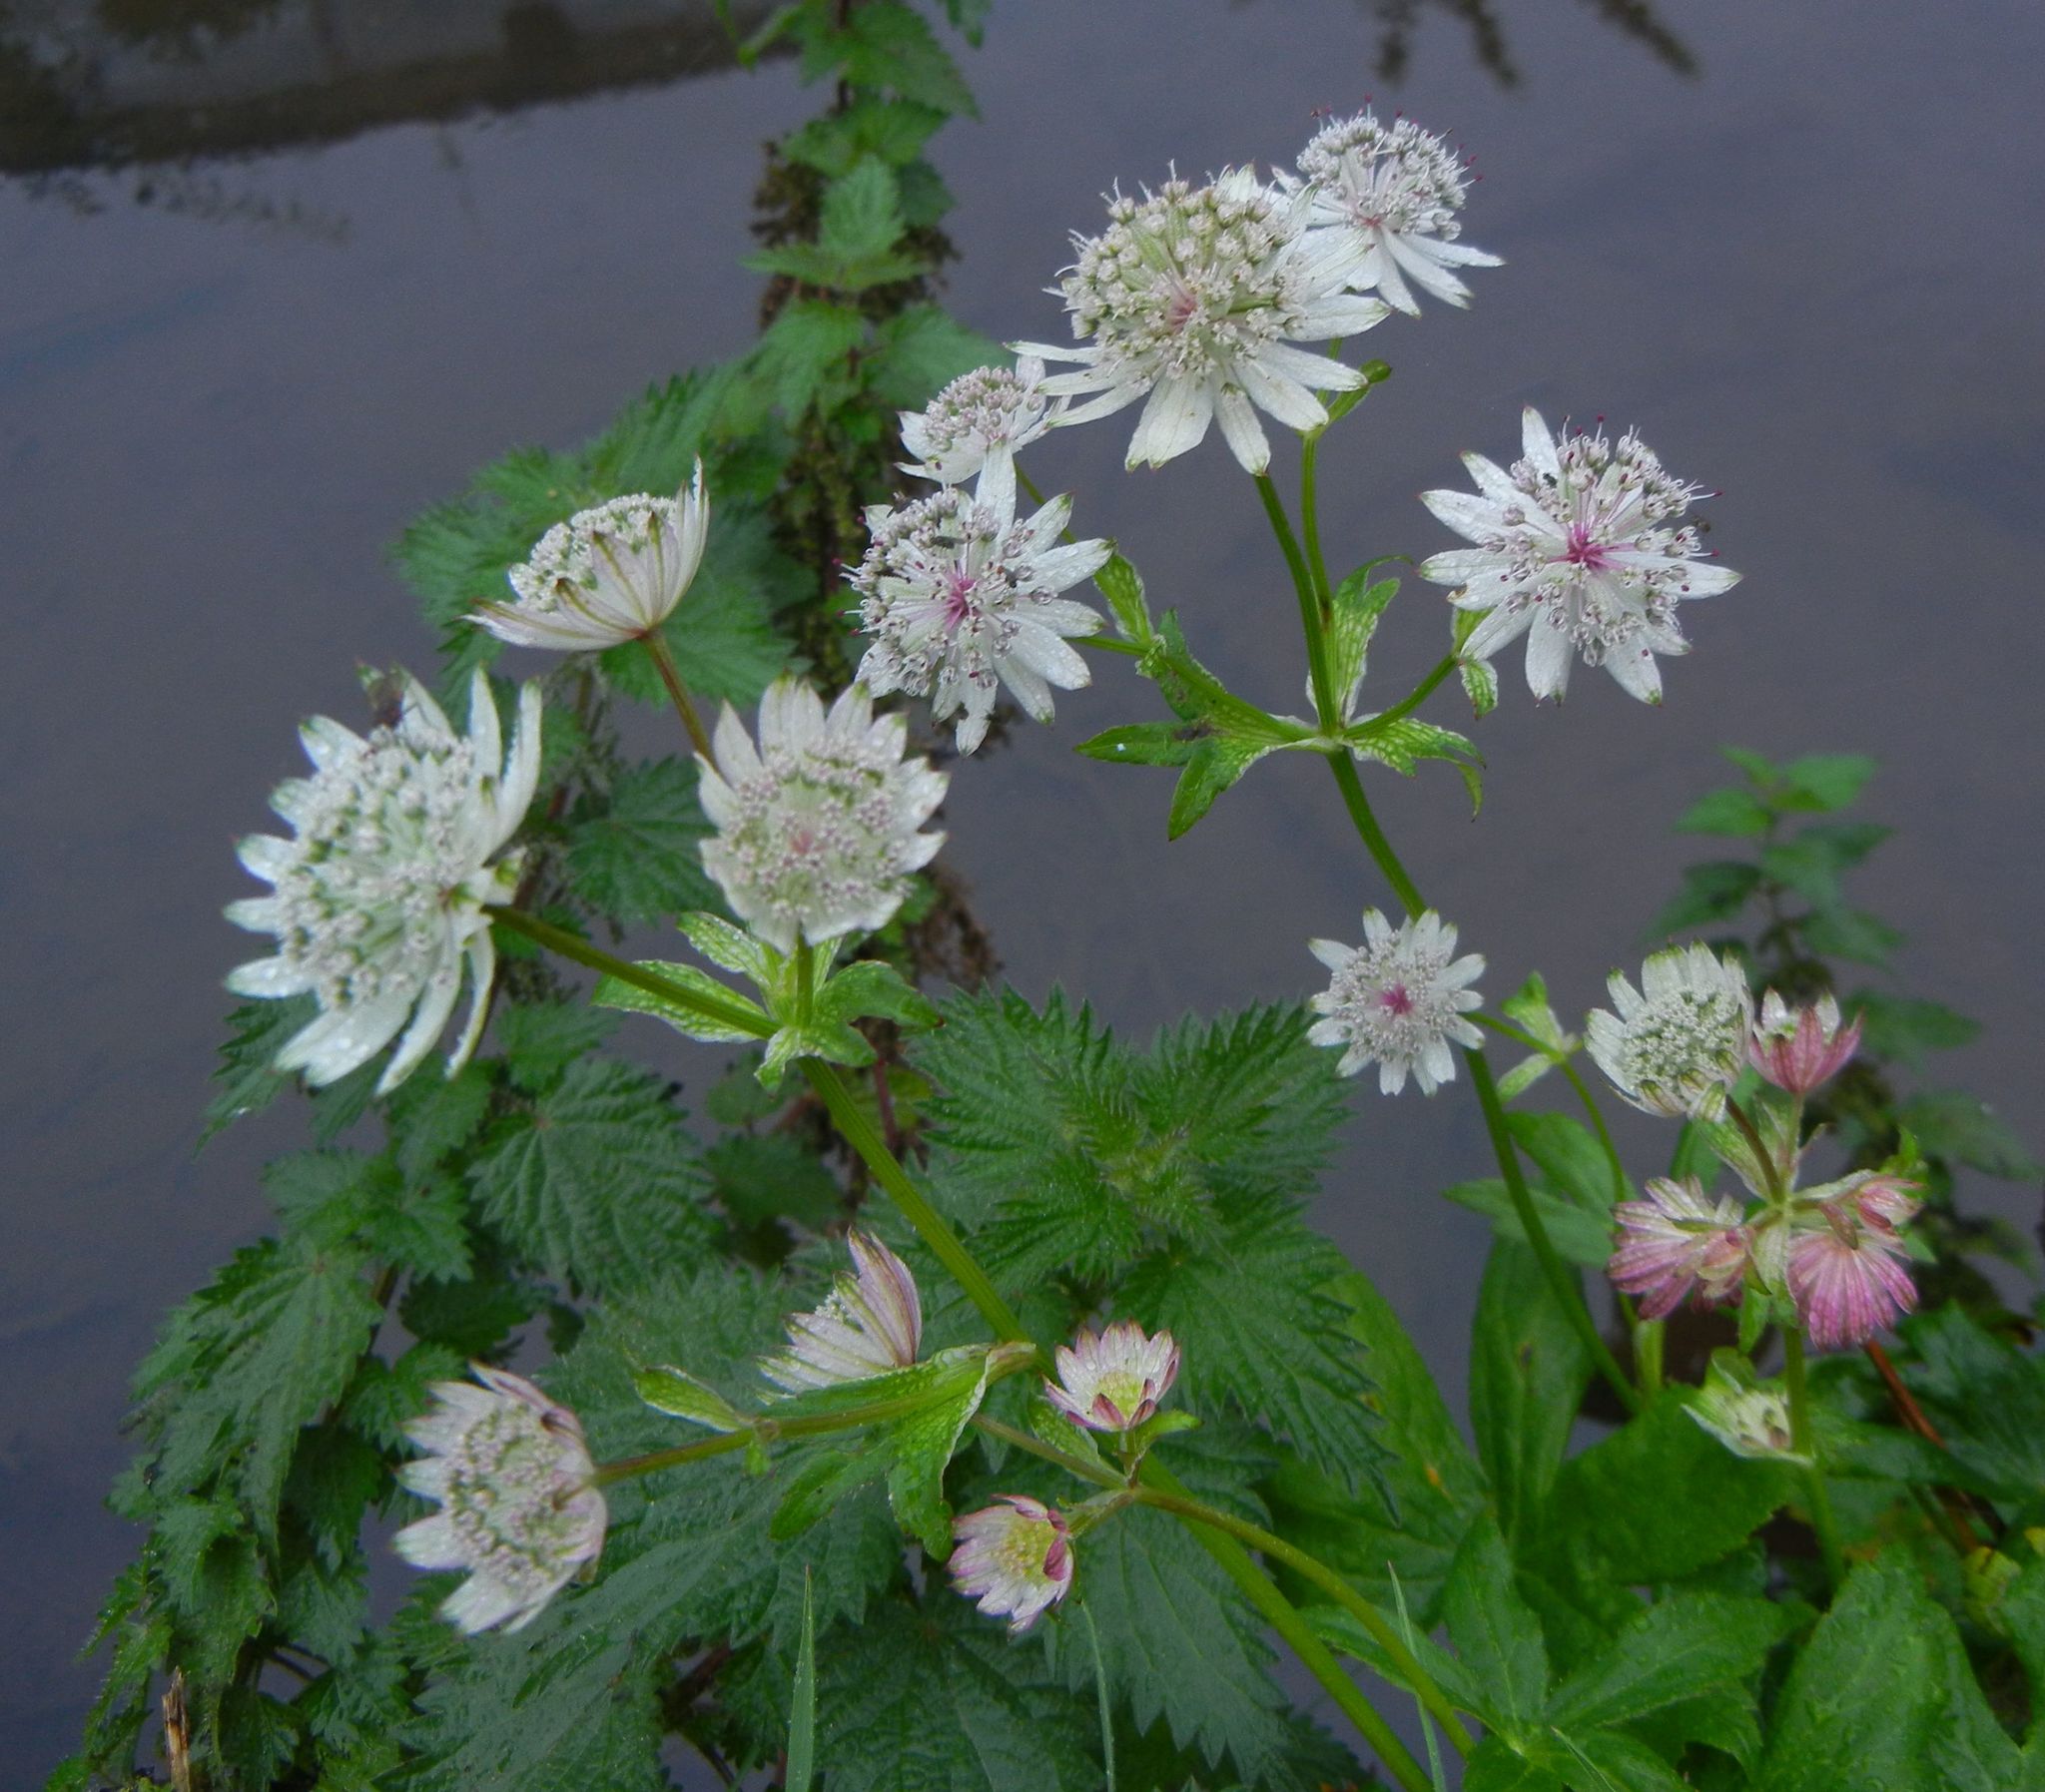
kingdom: Plantae
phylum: Tracheophyta
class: Magnoliopsida
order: Apiales
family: Apiaceae
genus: Astrantia
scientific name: Astrantia major
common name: Greater masterwort
